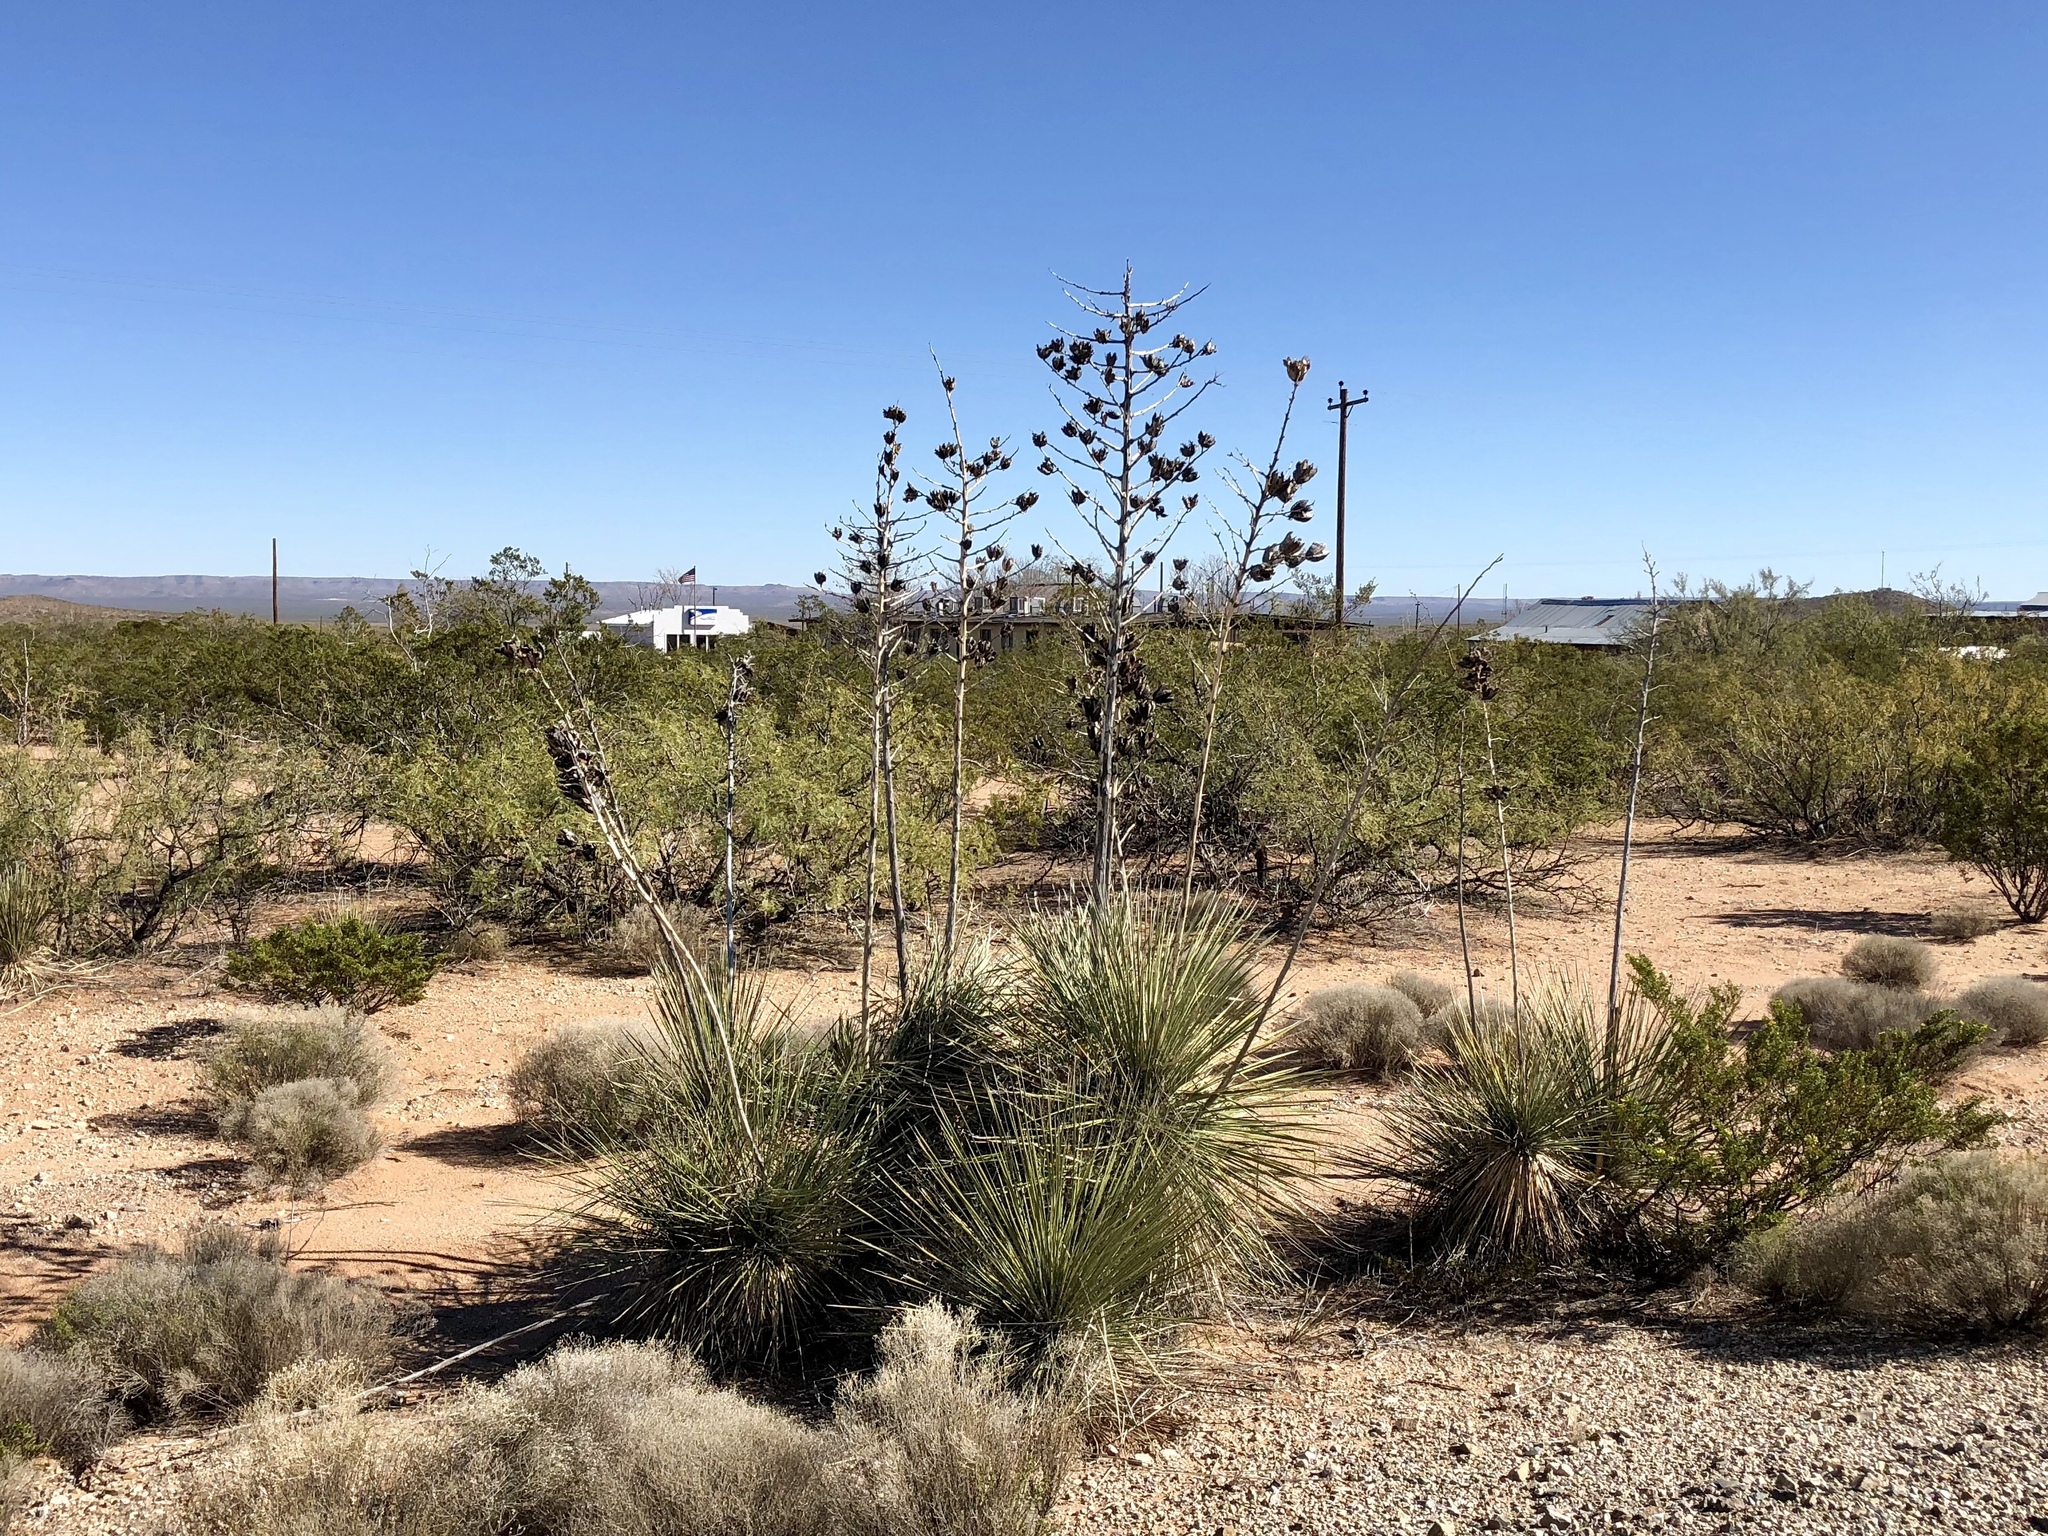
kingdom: Plantae
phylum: Tracheophyta
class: Liliopsida
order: Asparagales
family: Asparagaceae
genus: Yucca
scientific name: Yucca elata
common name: Palmella
